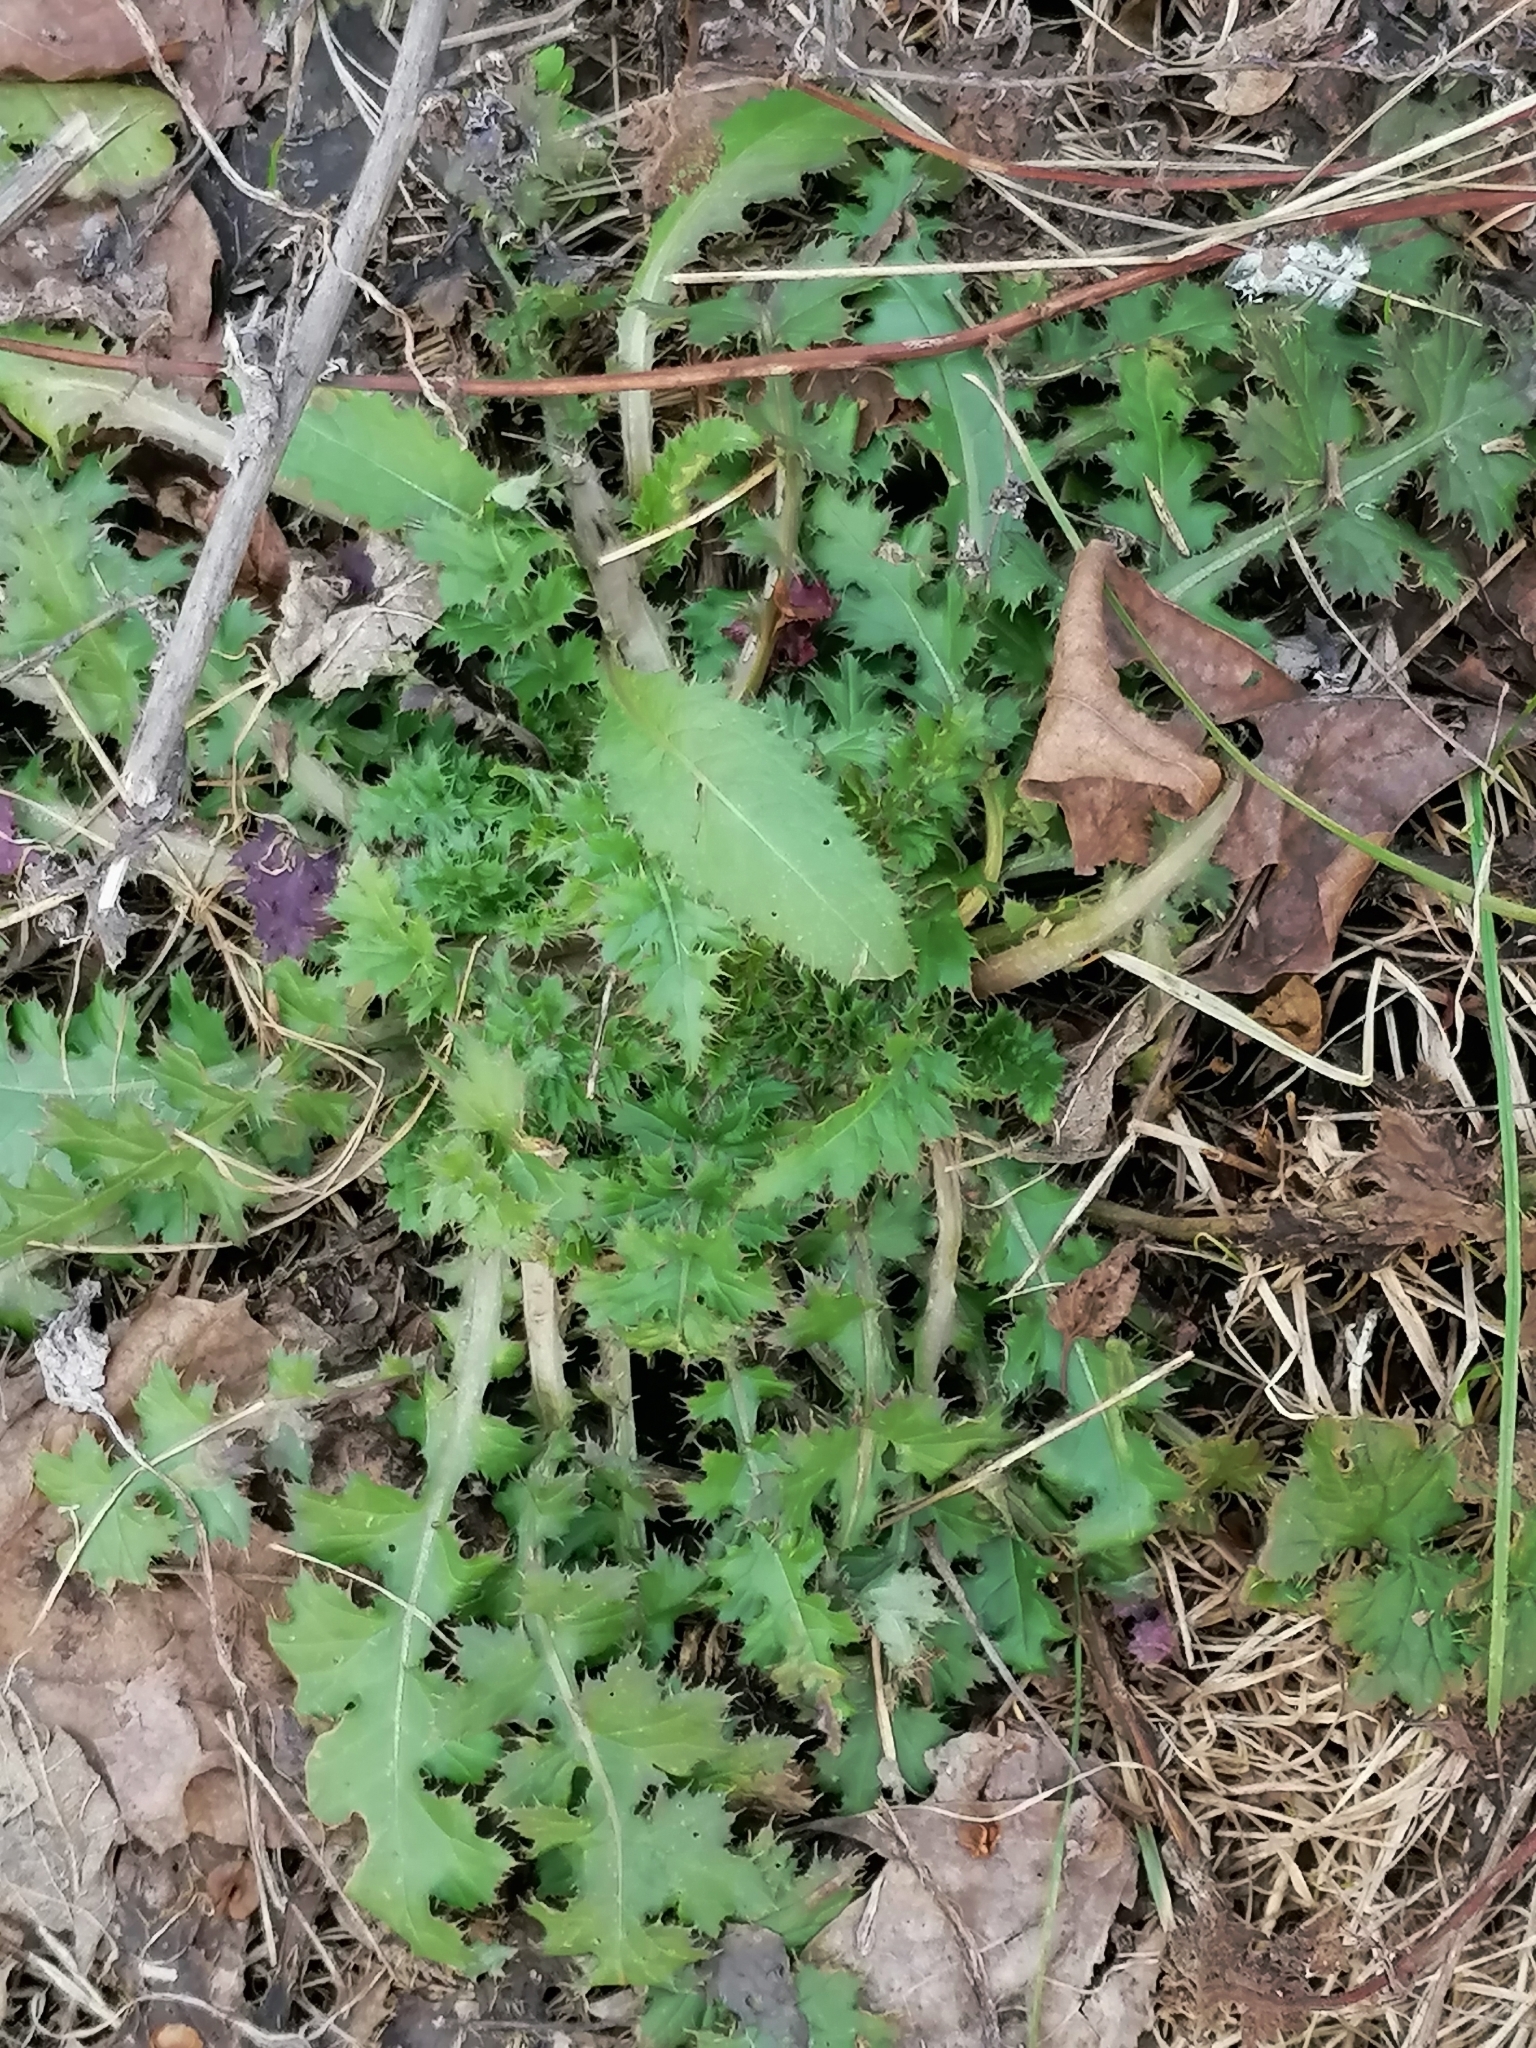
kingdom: Plantae
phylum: Tracheophyta
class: Magnoliopsida
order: Asterales
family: Asteraceae
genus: Sonchus
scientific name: Sonchus asper
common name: Prickly sow-thistle
